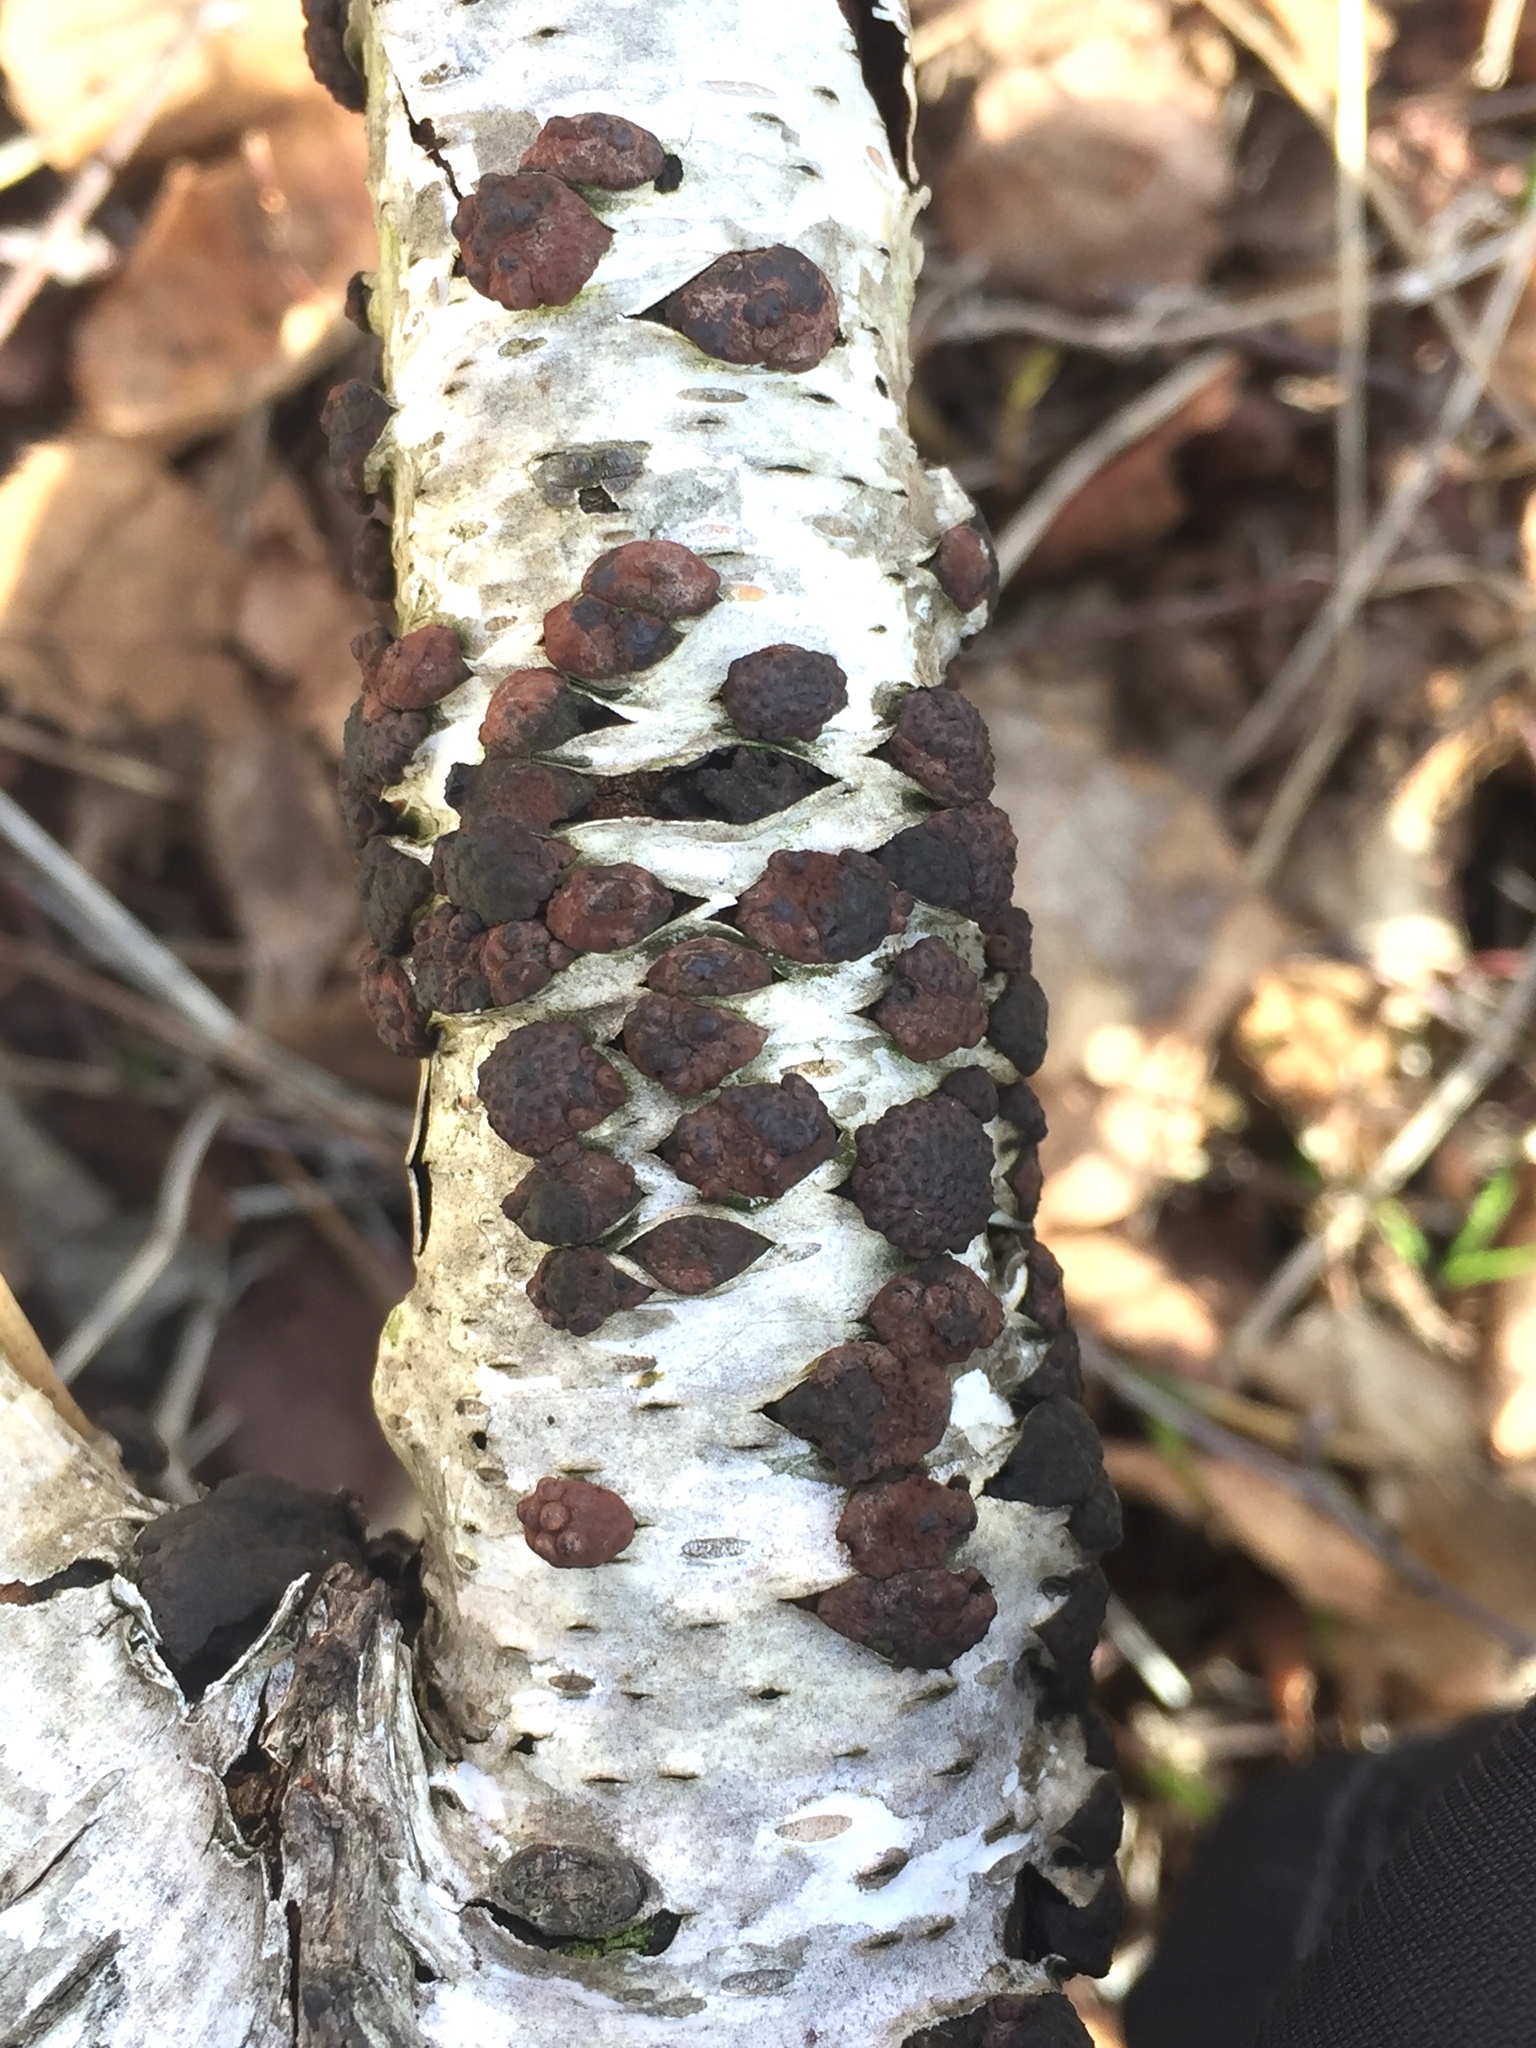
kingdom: Fungi
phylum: Ascomycota
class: Sordariomycetes
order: Xylariales
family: Hypoxylaceae
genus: Jackrogersella
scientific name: Jackrogersella multiformis
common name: Birch woodwart
